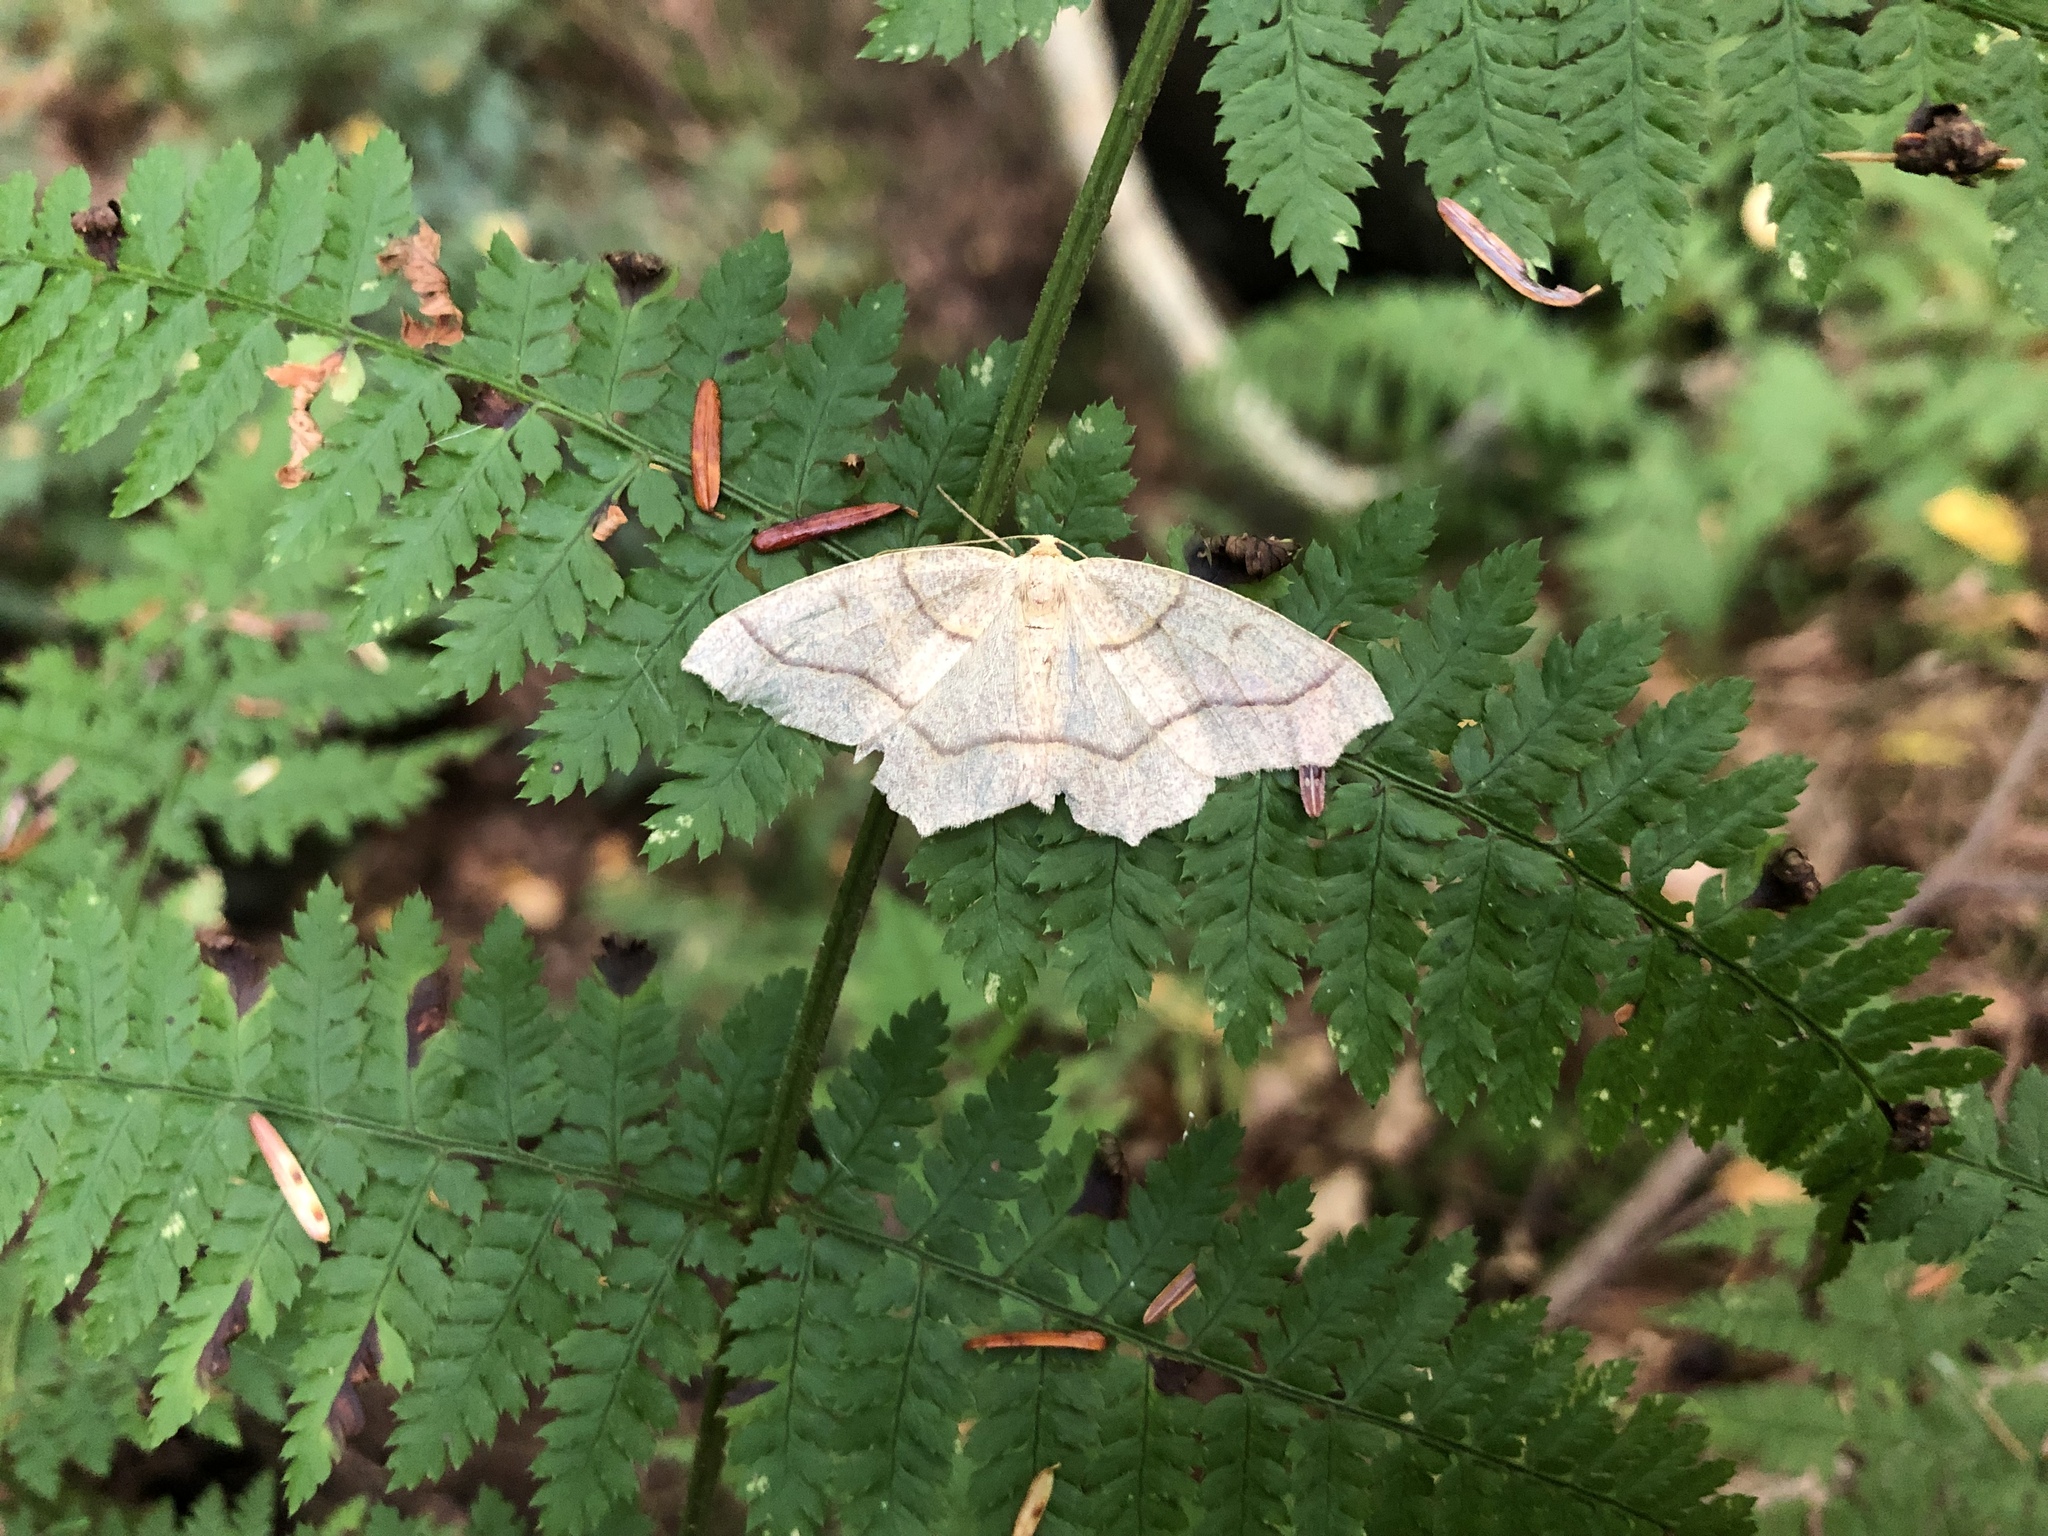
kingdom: Animalia
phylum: Arthropoda
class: Insecta
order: Lepidoptera
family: Geometridae
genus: Lambdina
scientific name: Lambdina fiscellaria
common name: Hemlock looper
